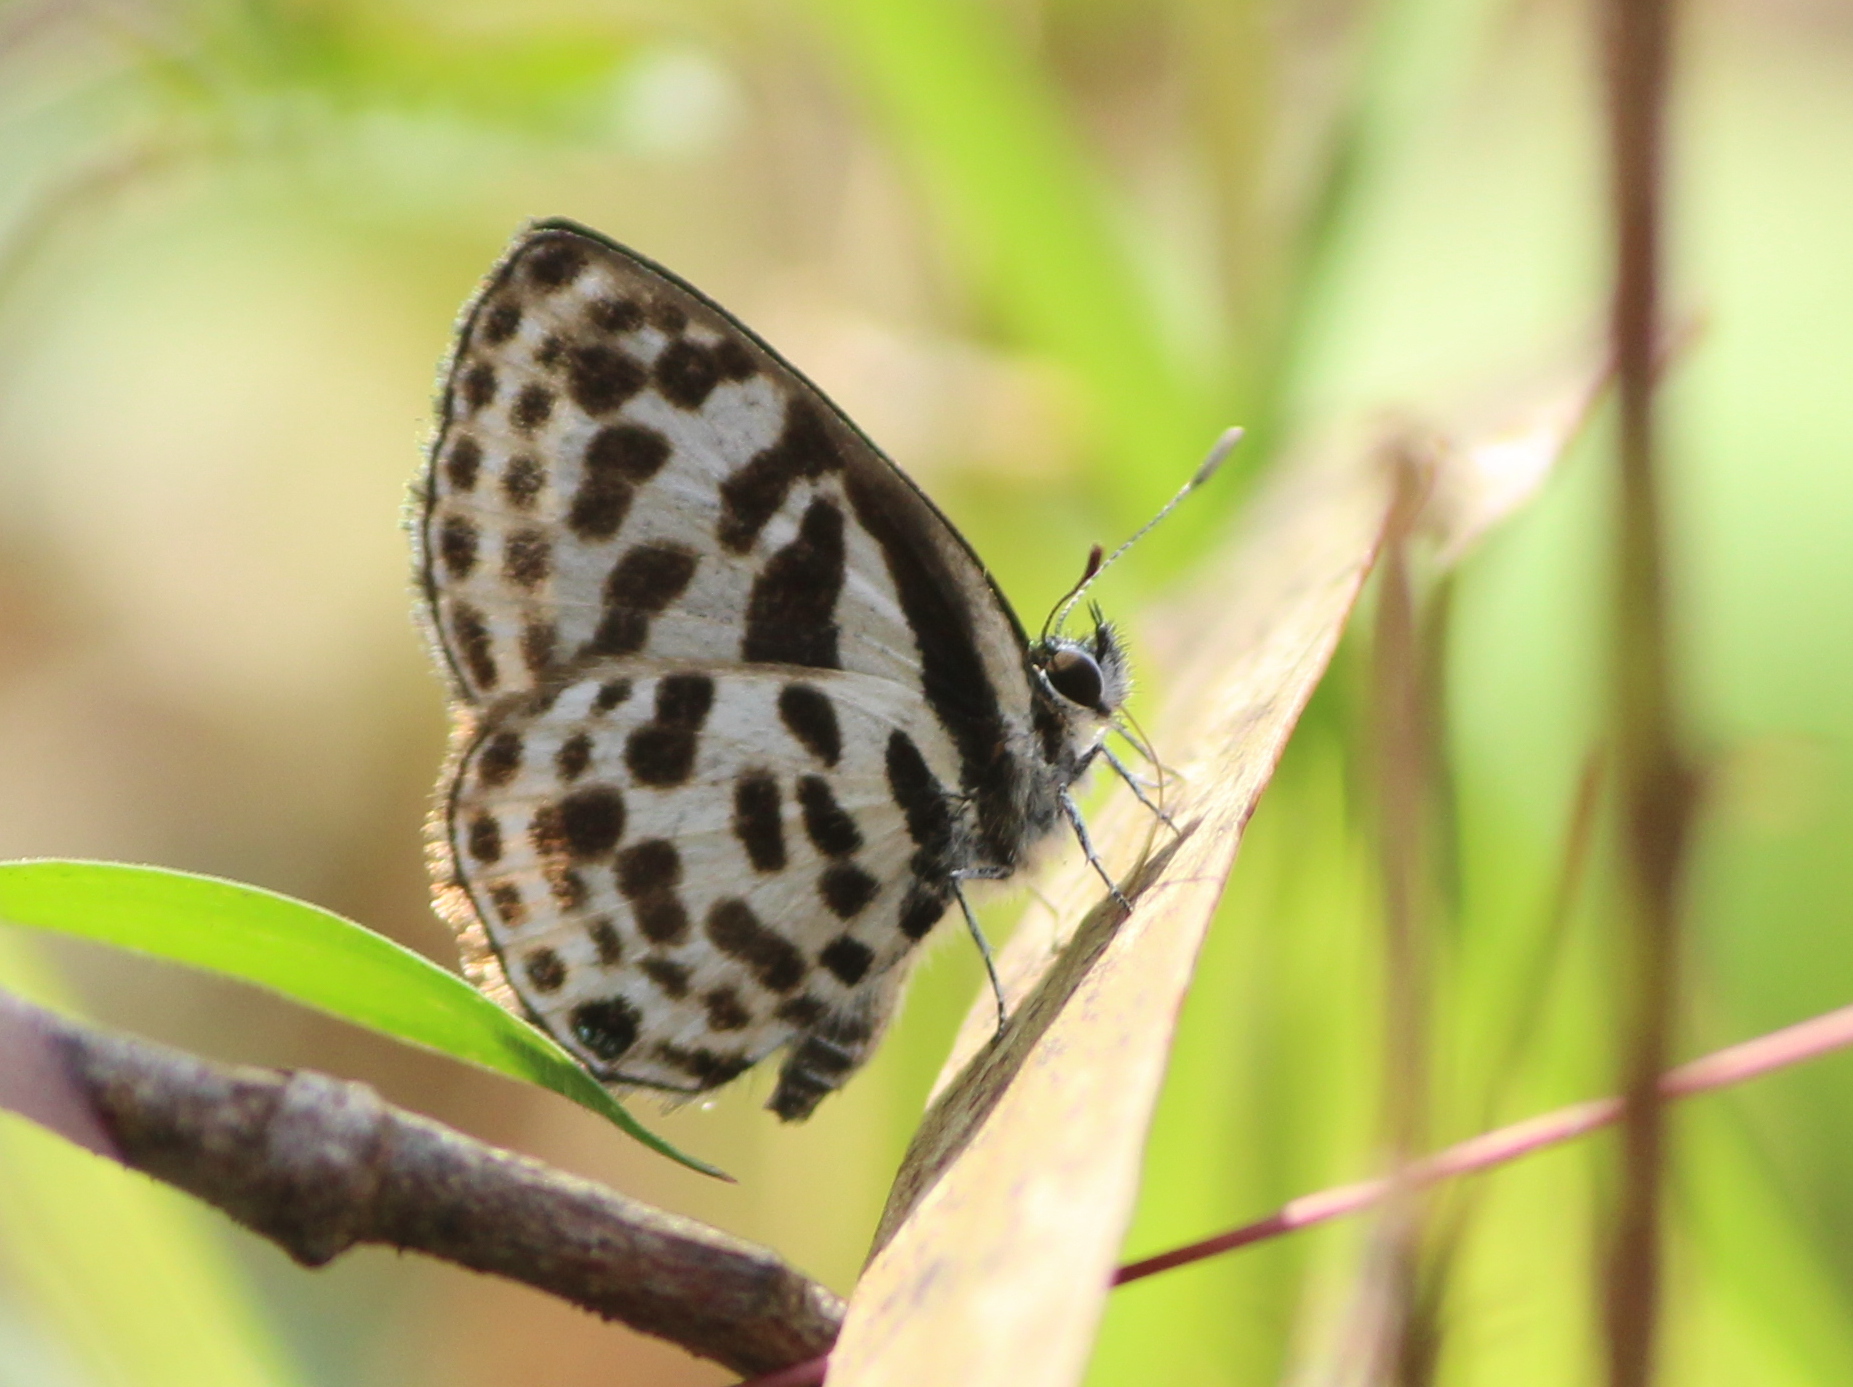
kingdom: Animalia
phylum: Arthropoda
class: Insecta
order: Lepidoptera
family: Lycaenidae
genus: Tarucus
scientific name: Tarucus
